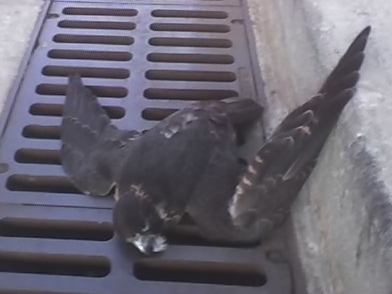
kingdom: Animalia
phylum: Chordata
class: Aves
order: Falconiformes
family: Falconidae
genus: Falco
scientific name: Falco peregrinus
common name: Peregrine falcon
